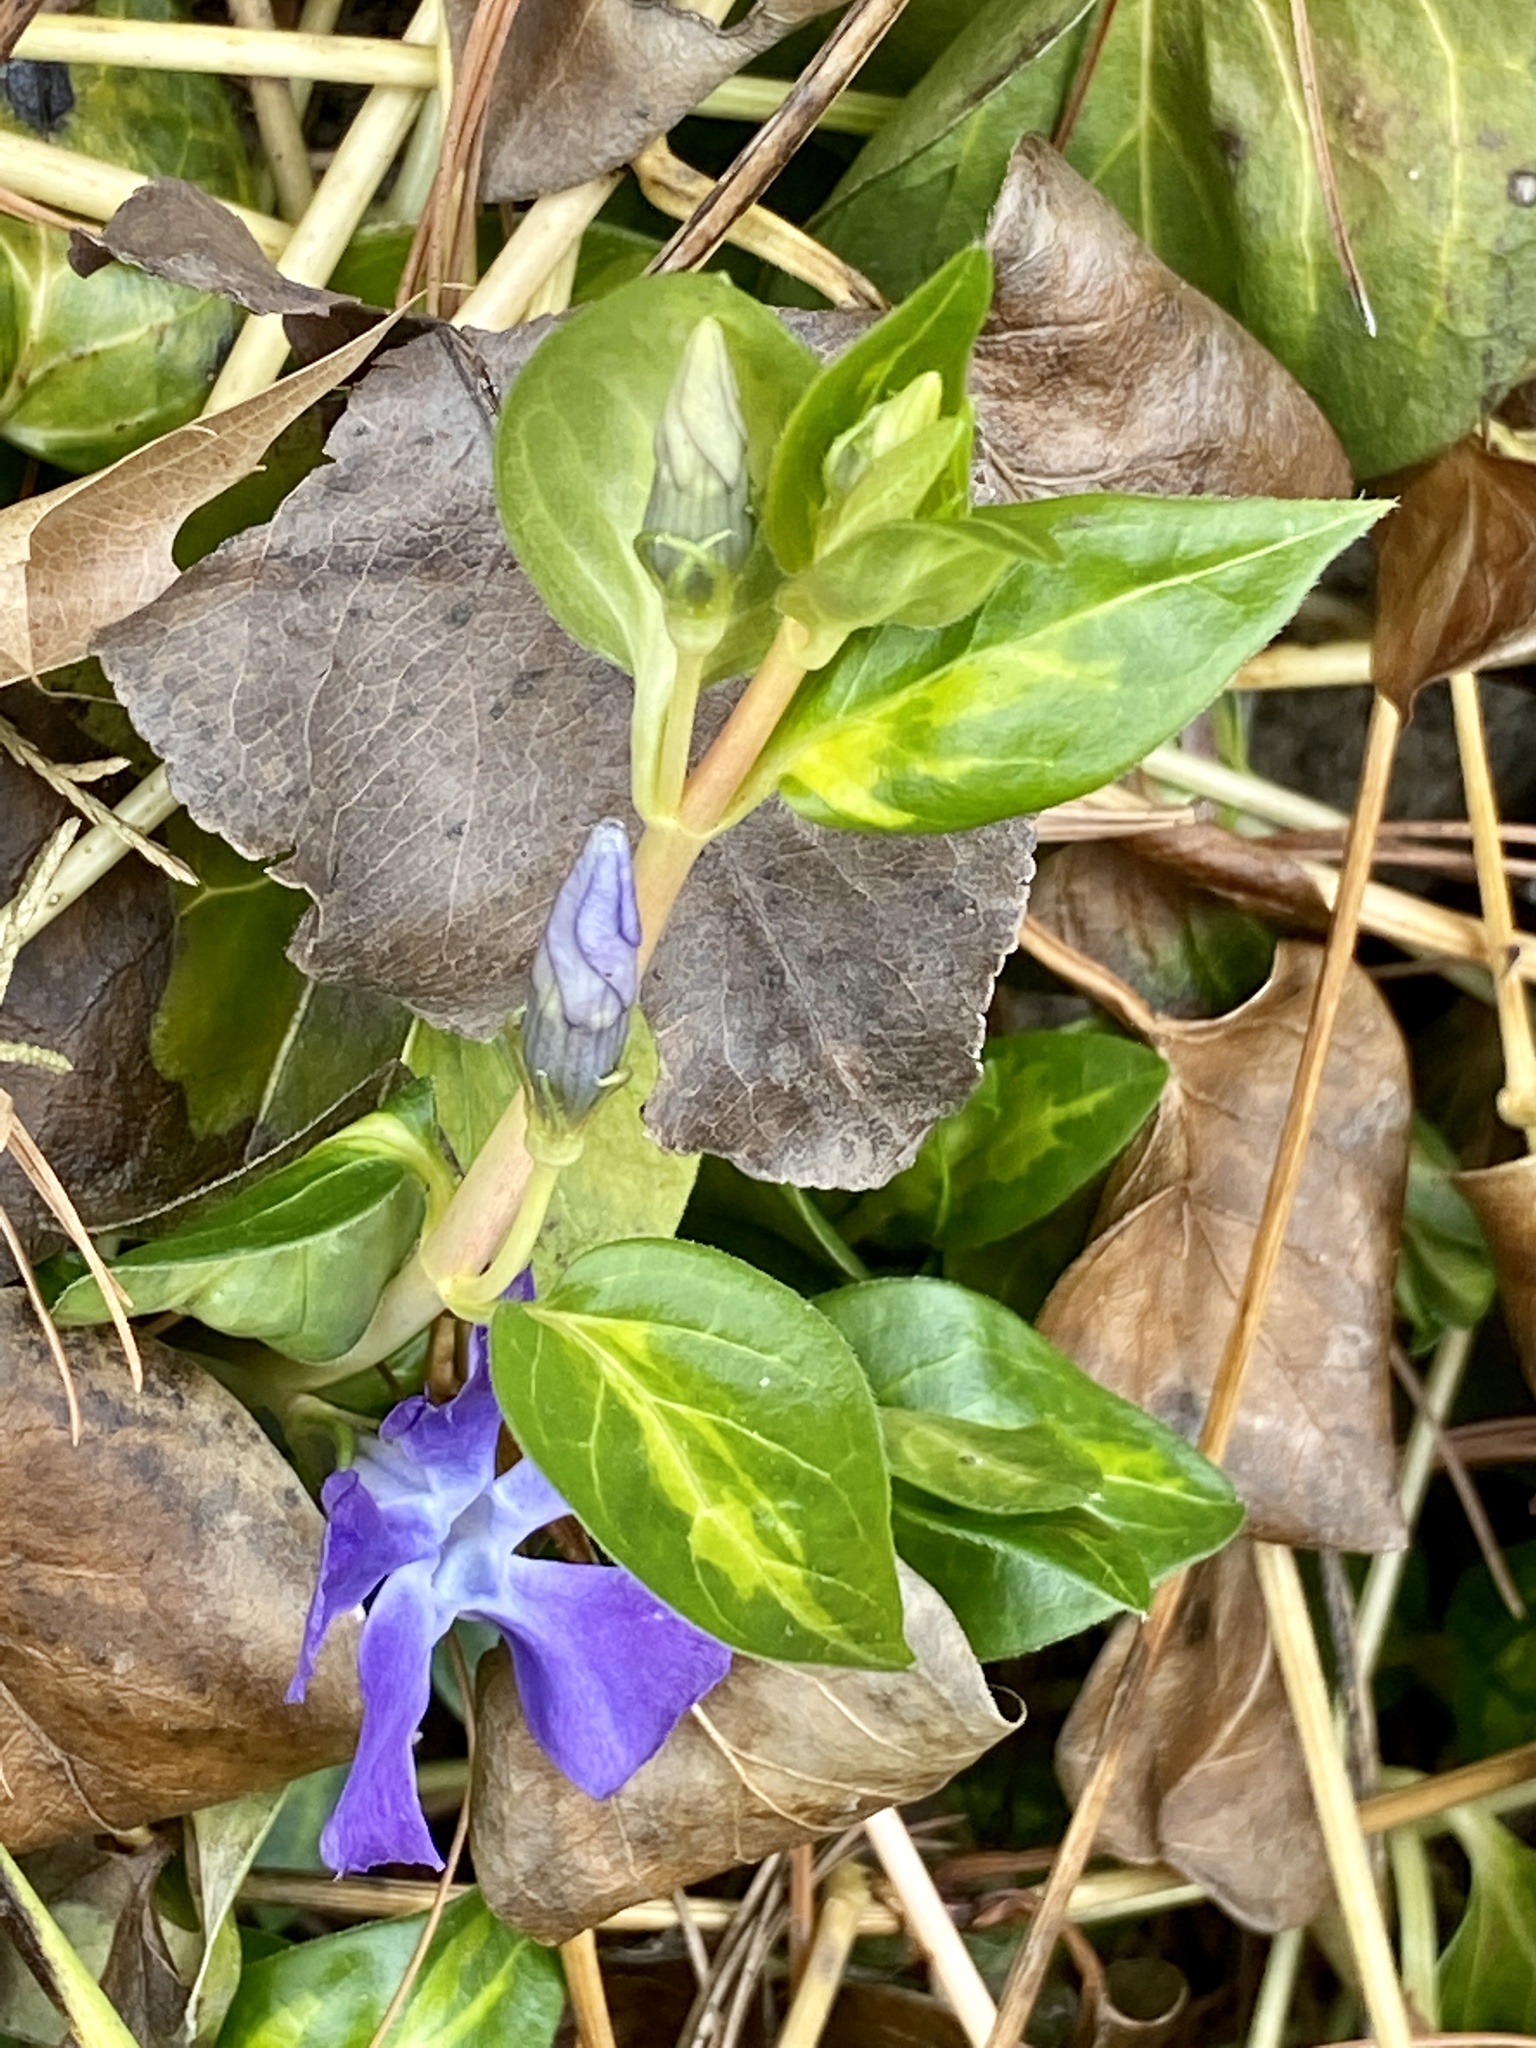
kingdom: Plantae
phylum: Tracheophyta
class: Magnoliopsida
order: Gentianales
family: Apocynaceae
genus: Vinca
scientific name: Vinca major
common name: Greater periwinkle
